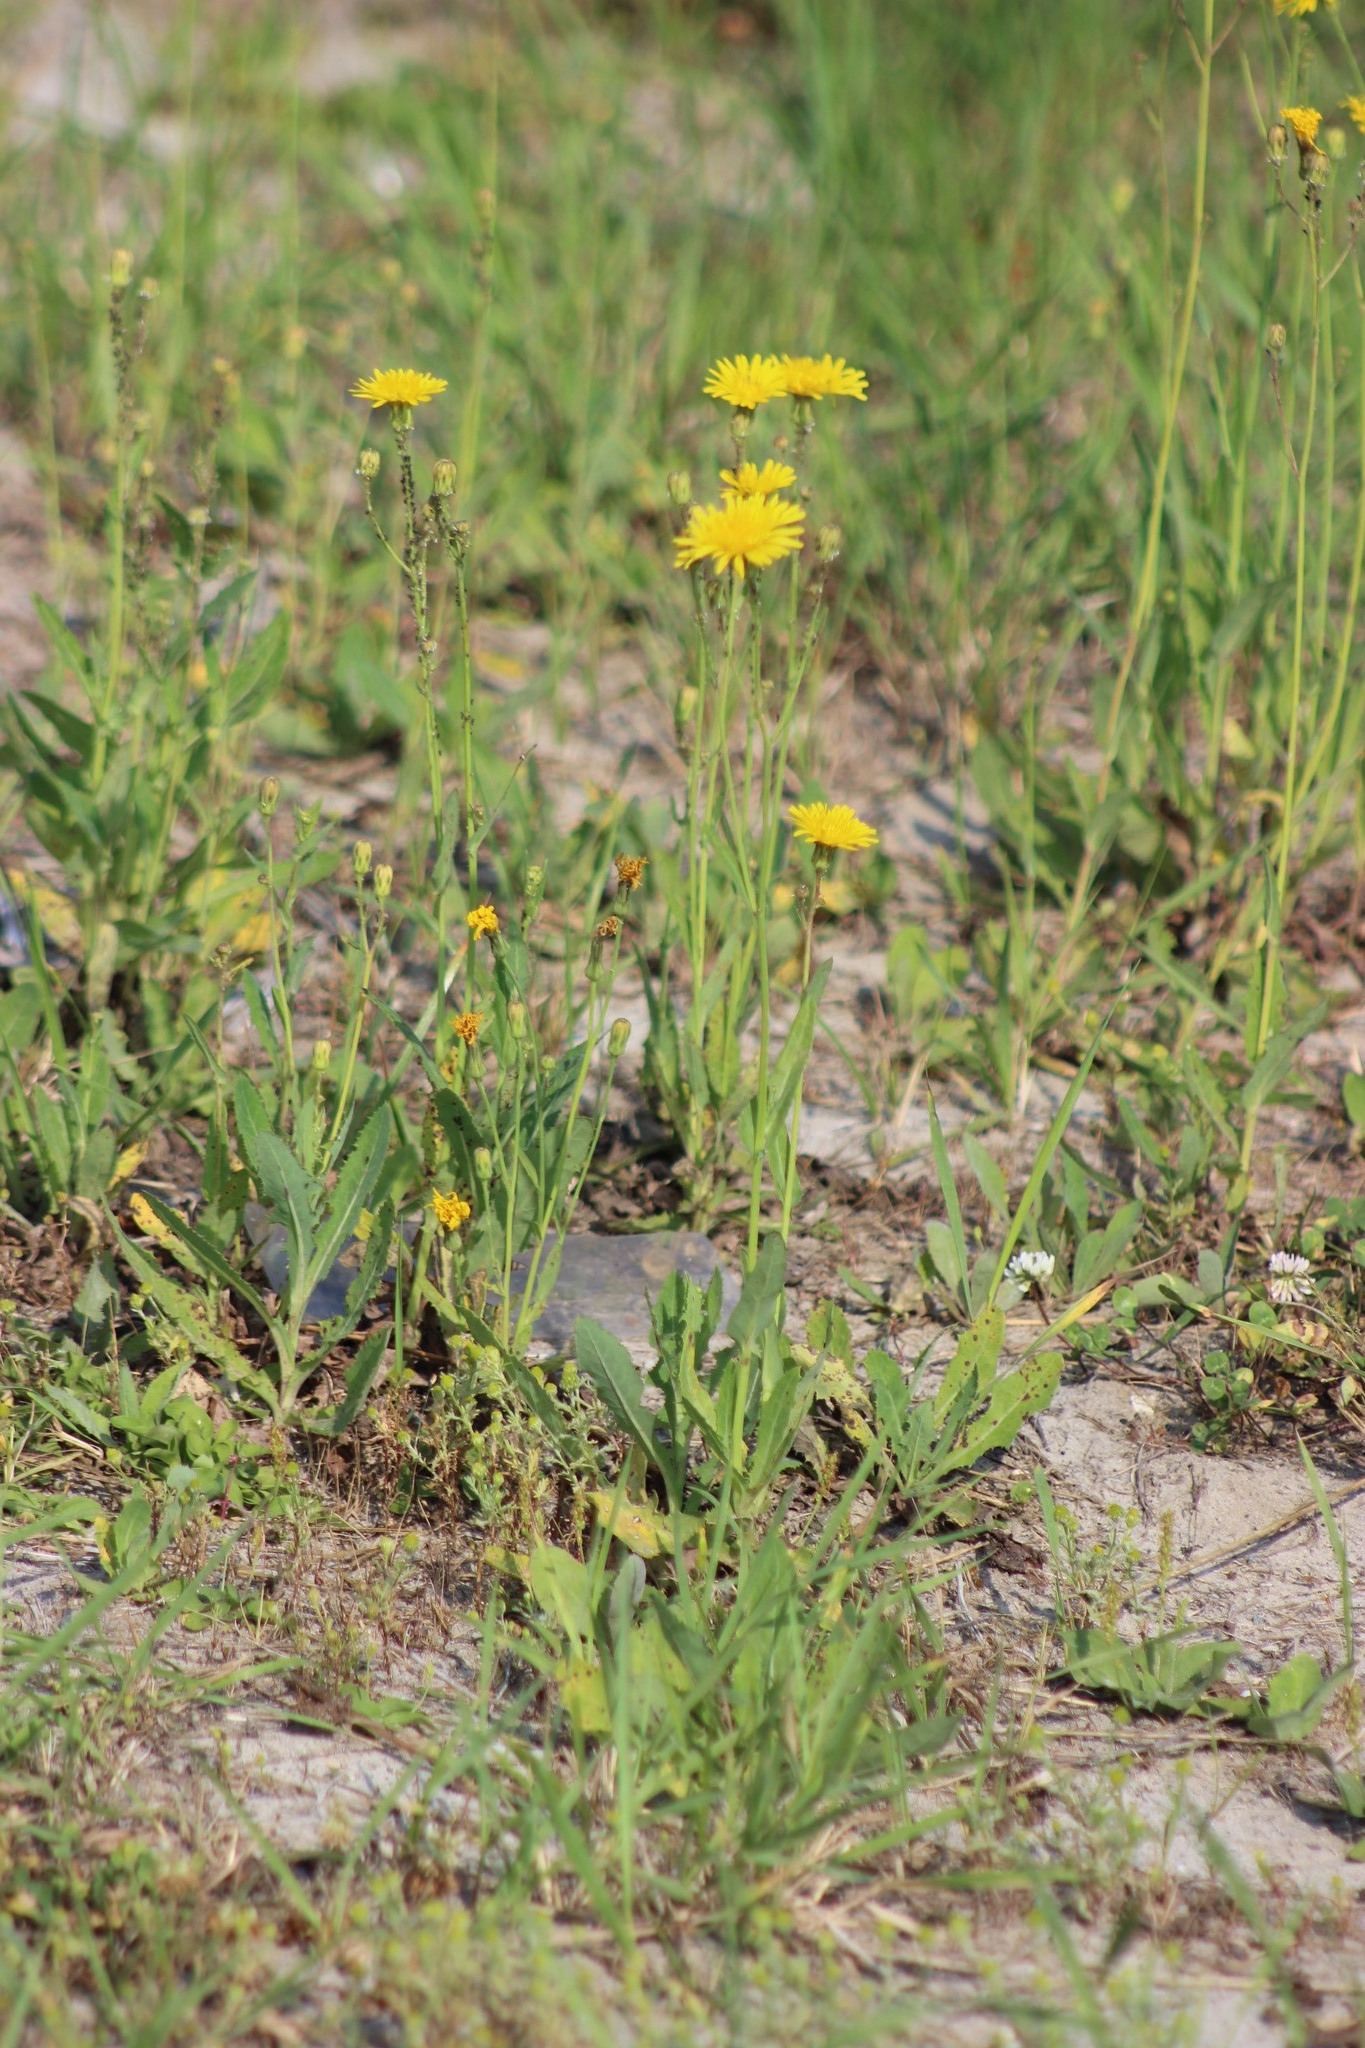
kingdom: Plantae
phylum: Tracheophyta
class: Magnoliopsida
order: Asterales
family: Asteraceae
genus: Sonchus
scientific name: Sonchus arvensis
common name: Perennial sow-thistle
